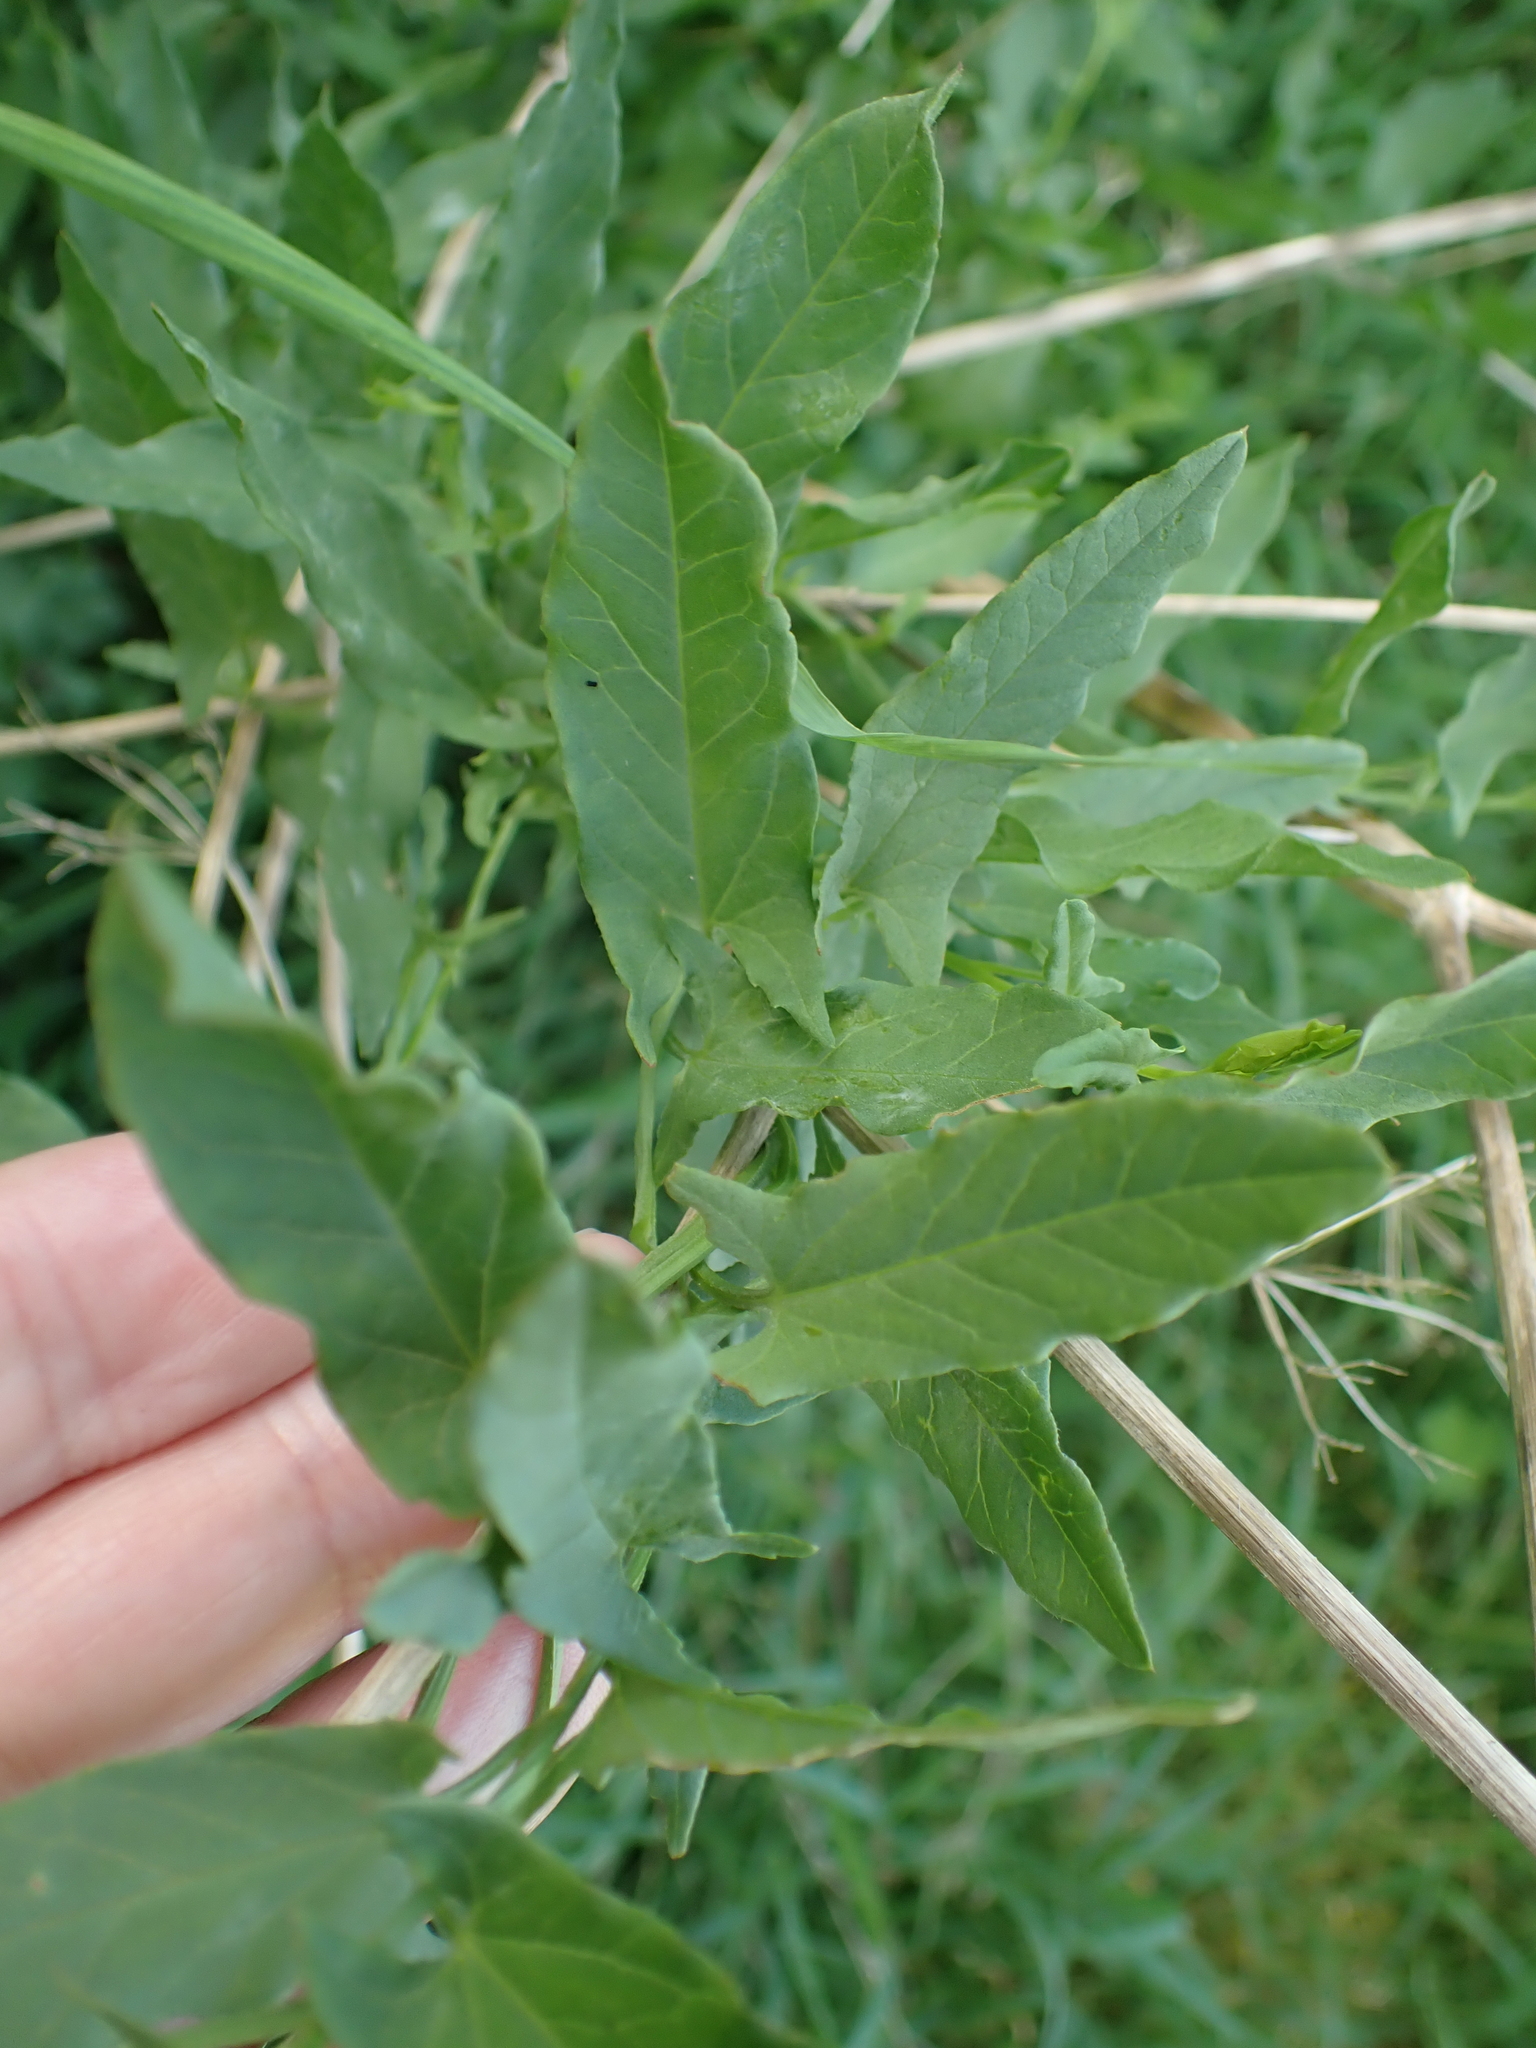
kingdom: Plantae
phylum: Tracheophyta
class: Magnoliopsida
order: Solanales
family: Convolvulaceae
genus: Convolvulus
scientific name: Convolvulus arvensis
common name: Field bindweed
